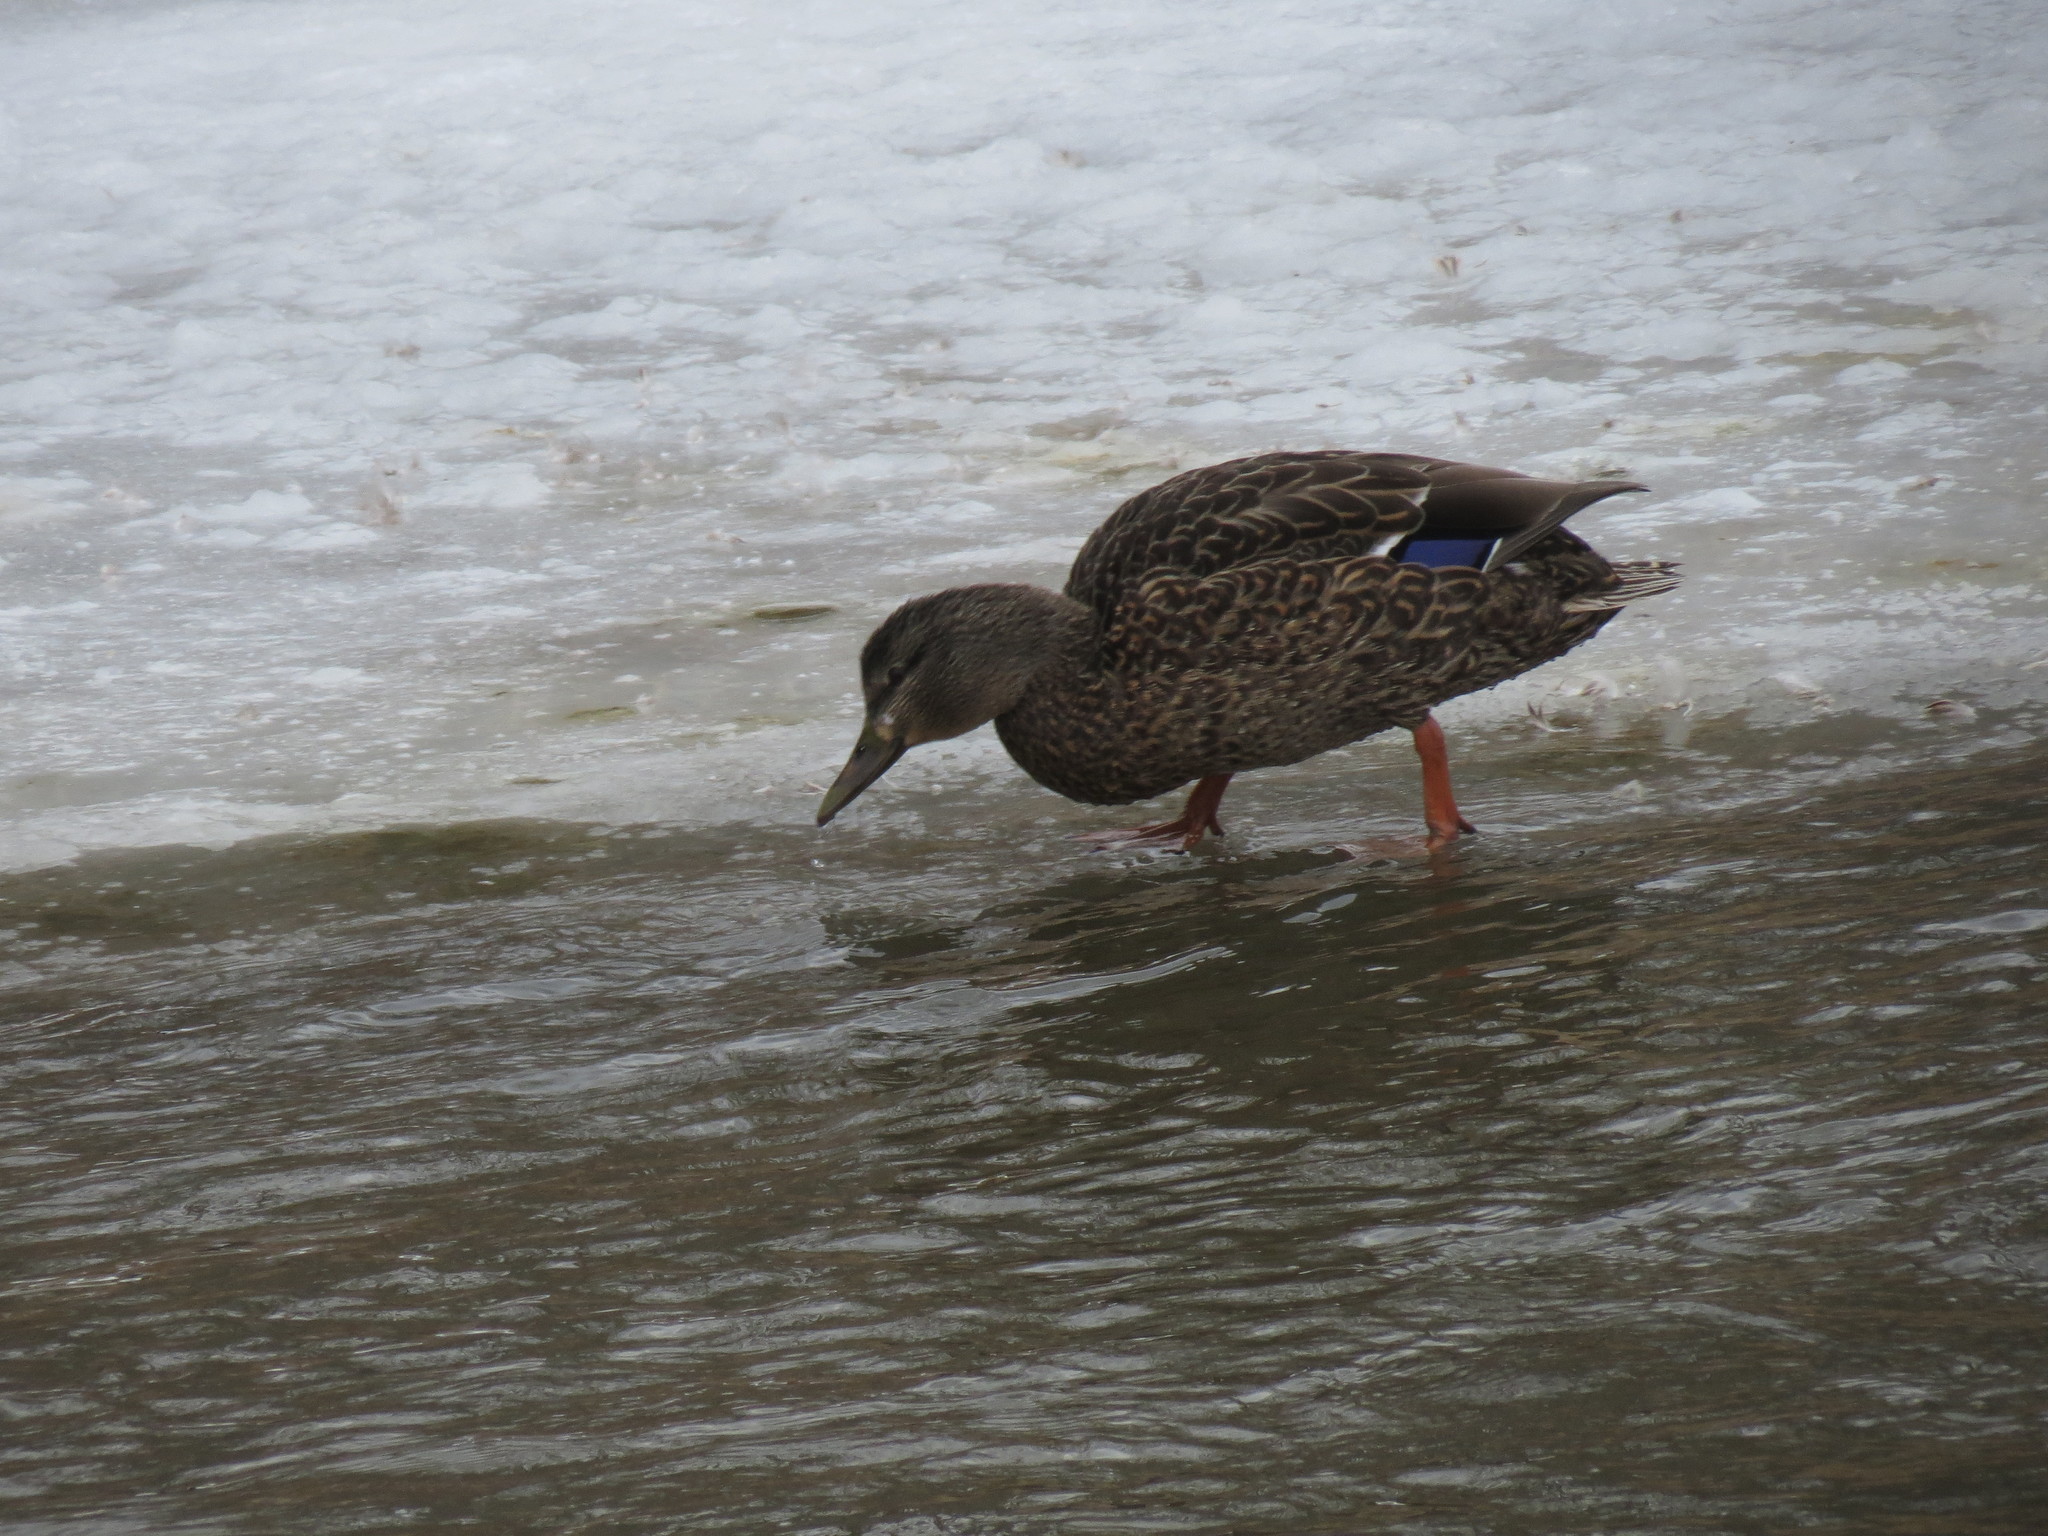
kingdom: Animalia
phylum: Chordata
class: Aves
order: Anseriformes
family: Anatidae
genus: Anas
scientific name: Anas
